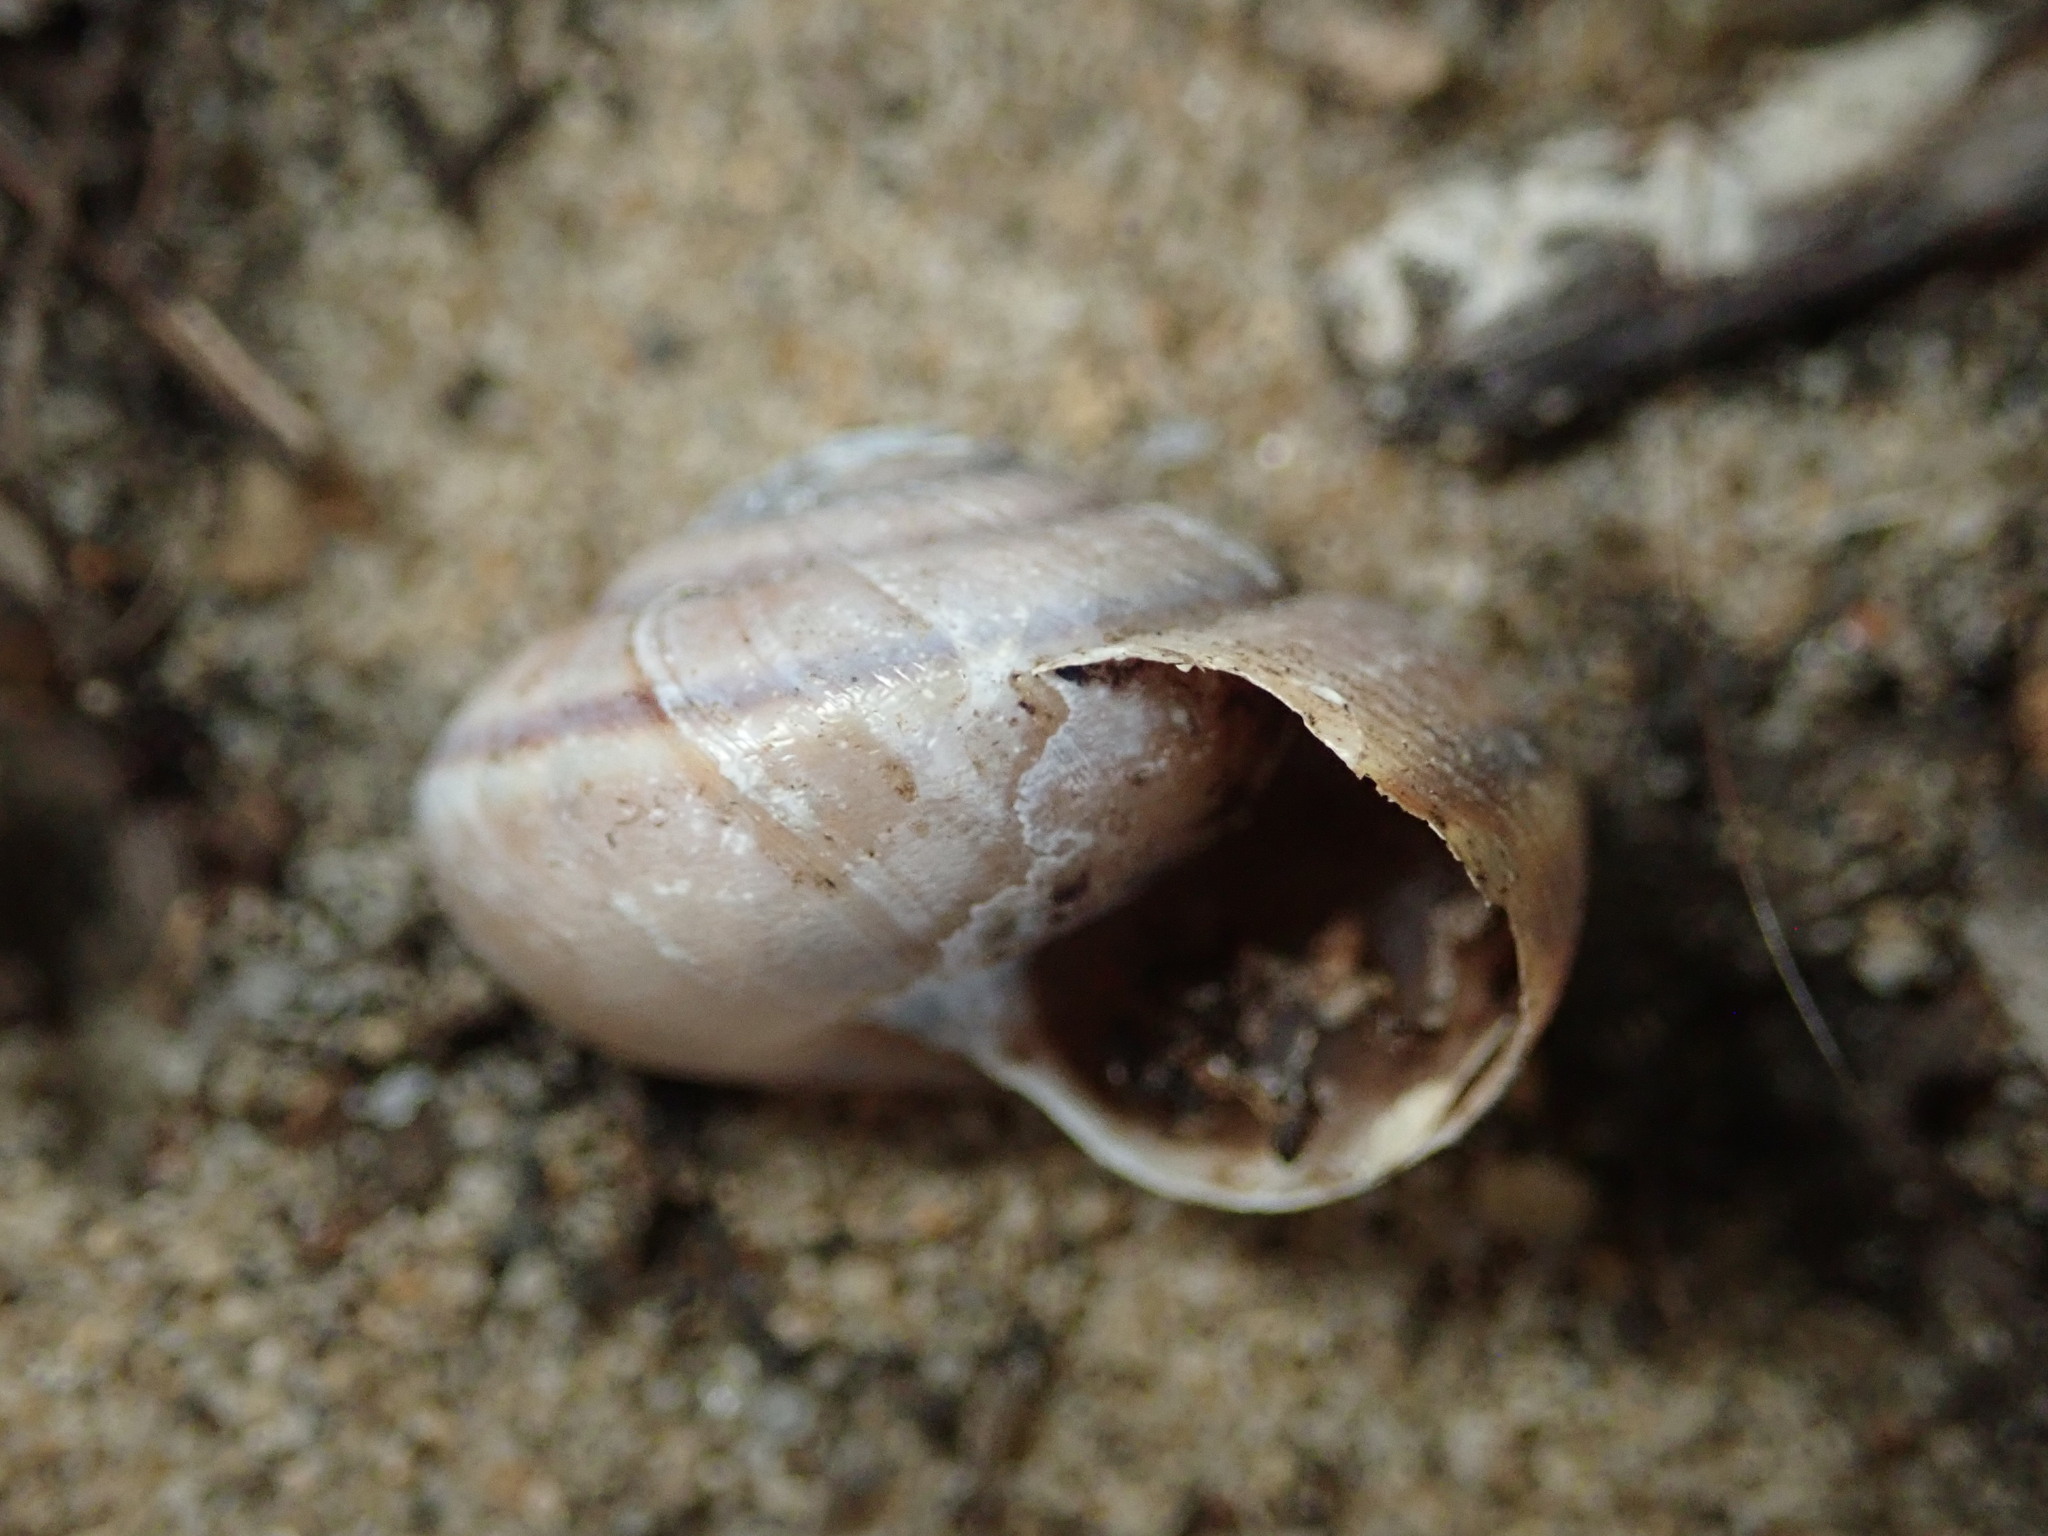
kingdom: Animalia
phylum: Mollusca
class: Gastropoda
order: Stylommatophora
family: Xanthonychidae
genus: Helminthoglypta
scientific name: Helminthoglypta umbilicata
